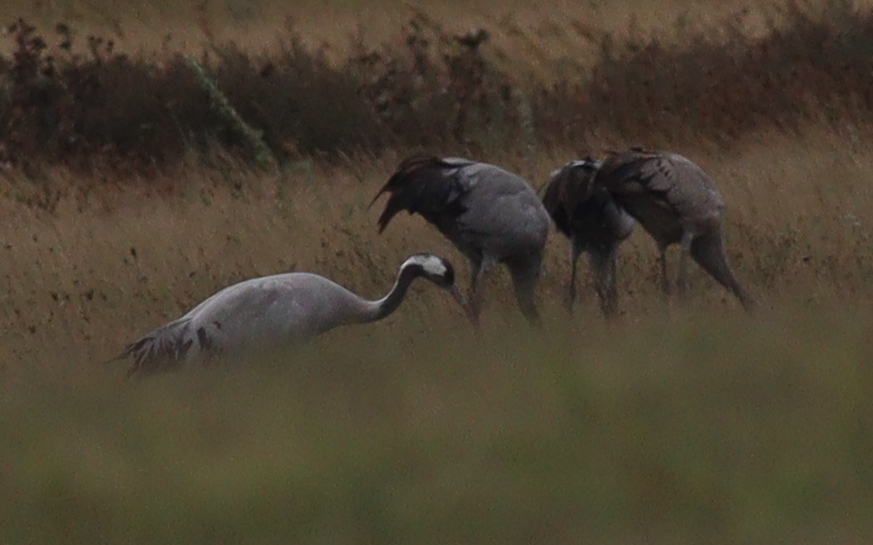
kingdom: Animalia
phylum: Chordata
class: Aves
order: Gruiformes
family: Gruidae
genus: Grus
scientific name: Grus grus
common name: Common crane
